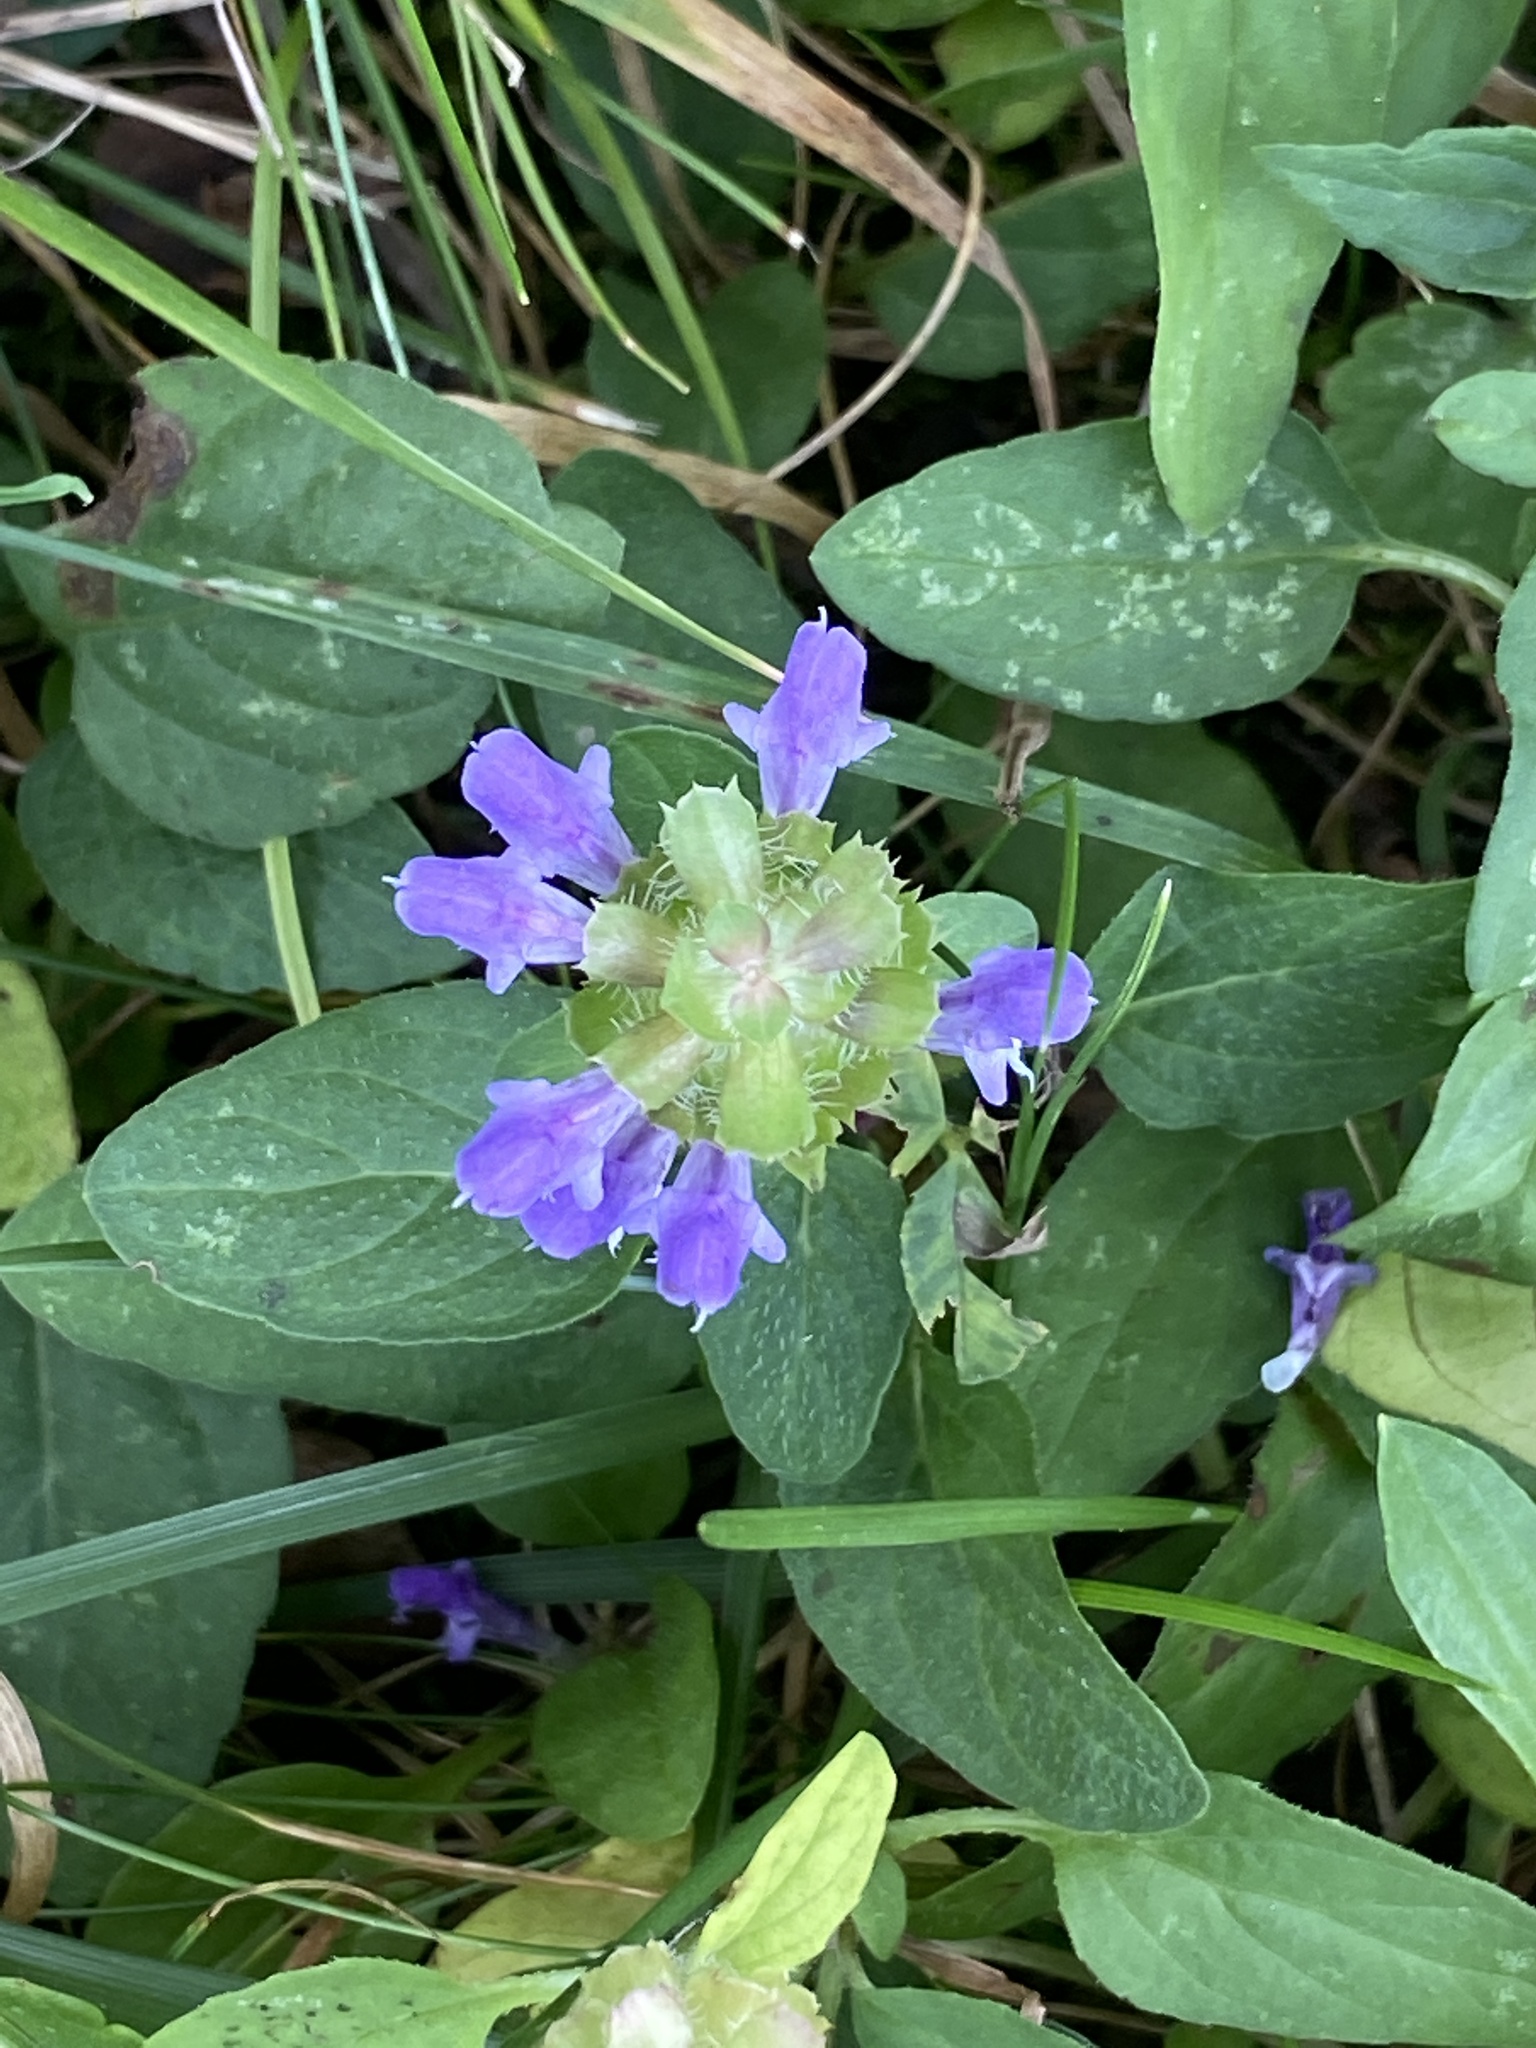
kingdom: Plantae
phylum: Tracheophyta
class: Magnoliopsida
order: Lamiales
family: Lamiaceae
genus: Prunella
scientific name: Prunella vulgaris
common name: Heal-all
